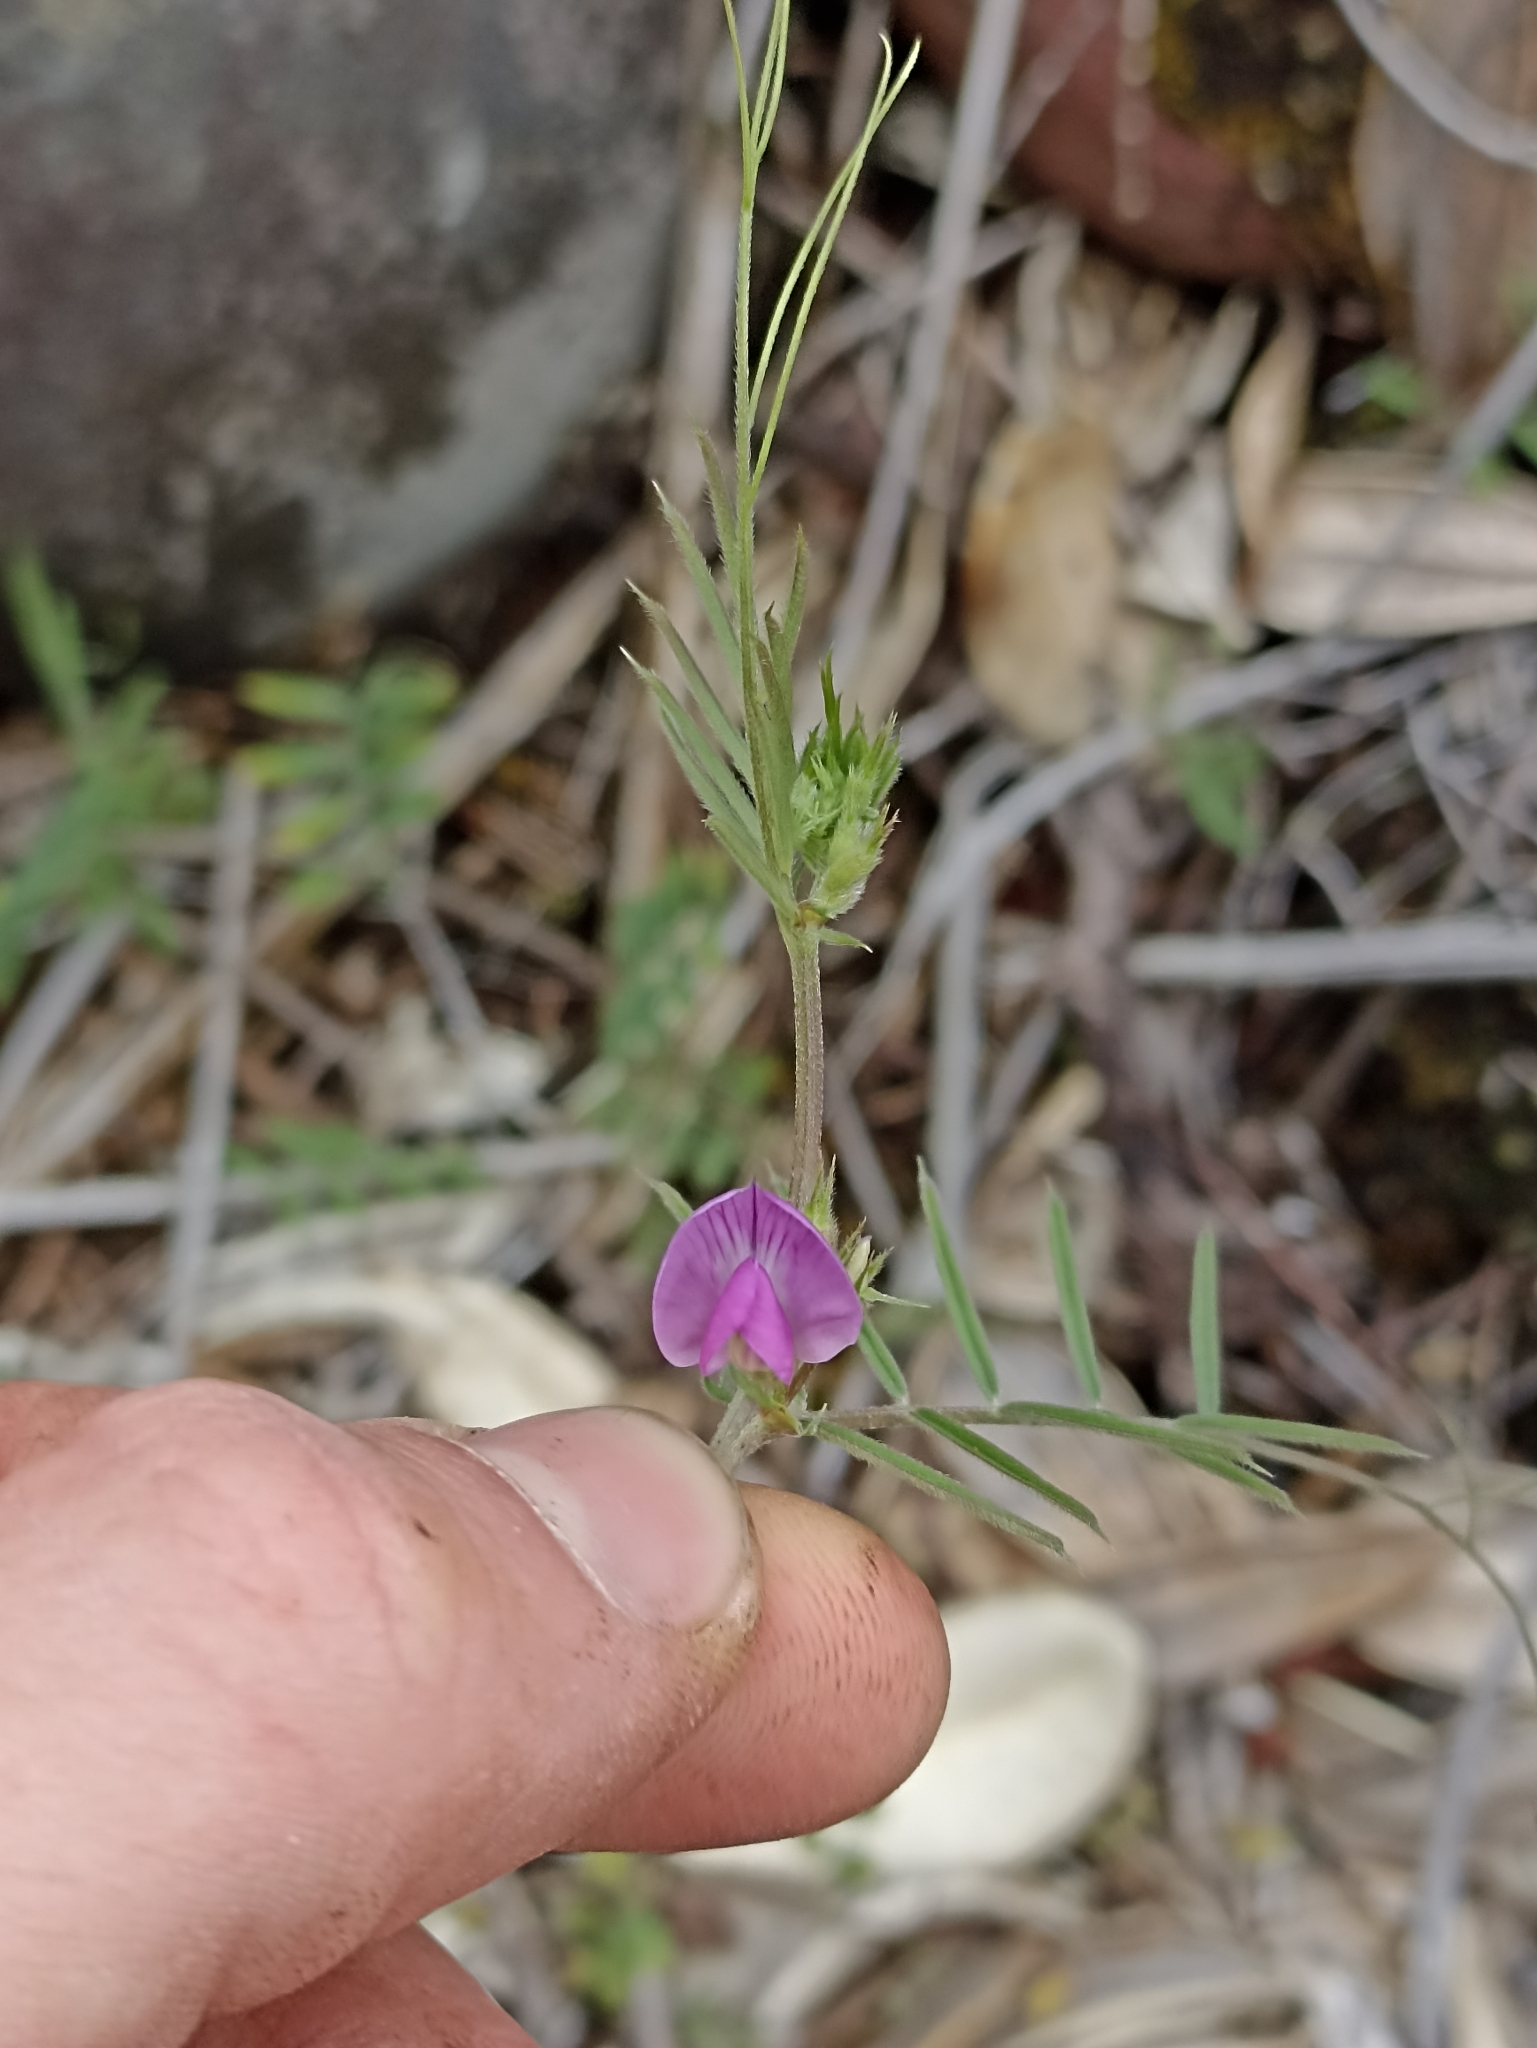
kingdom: Plantae
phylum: Tracheophyta
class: Magnoliopsida
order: Fabales
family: Fabaceae
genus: Vicia
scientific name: Vicia sativa
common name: Garden vetch
